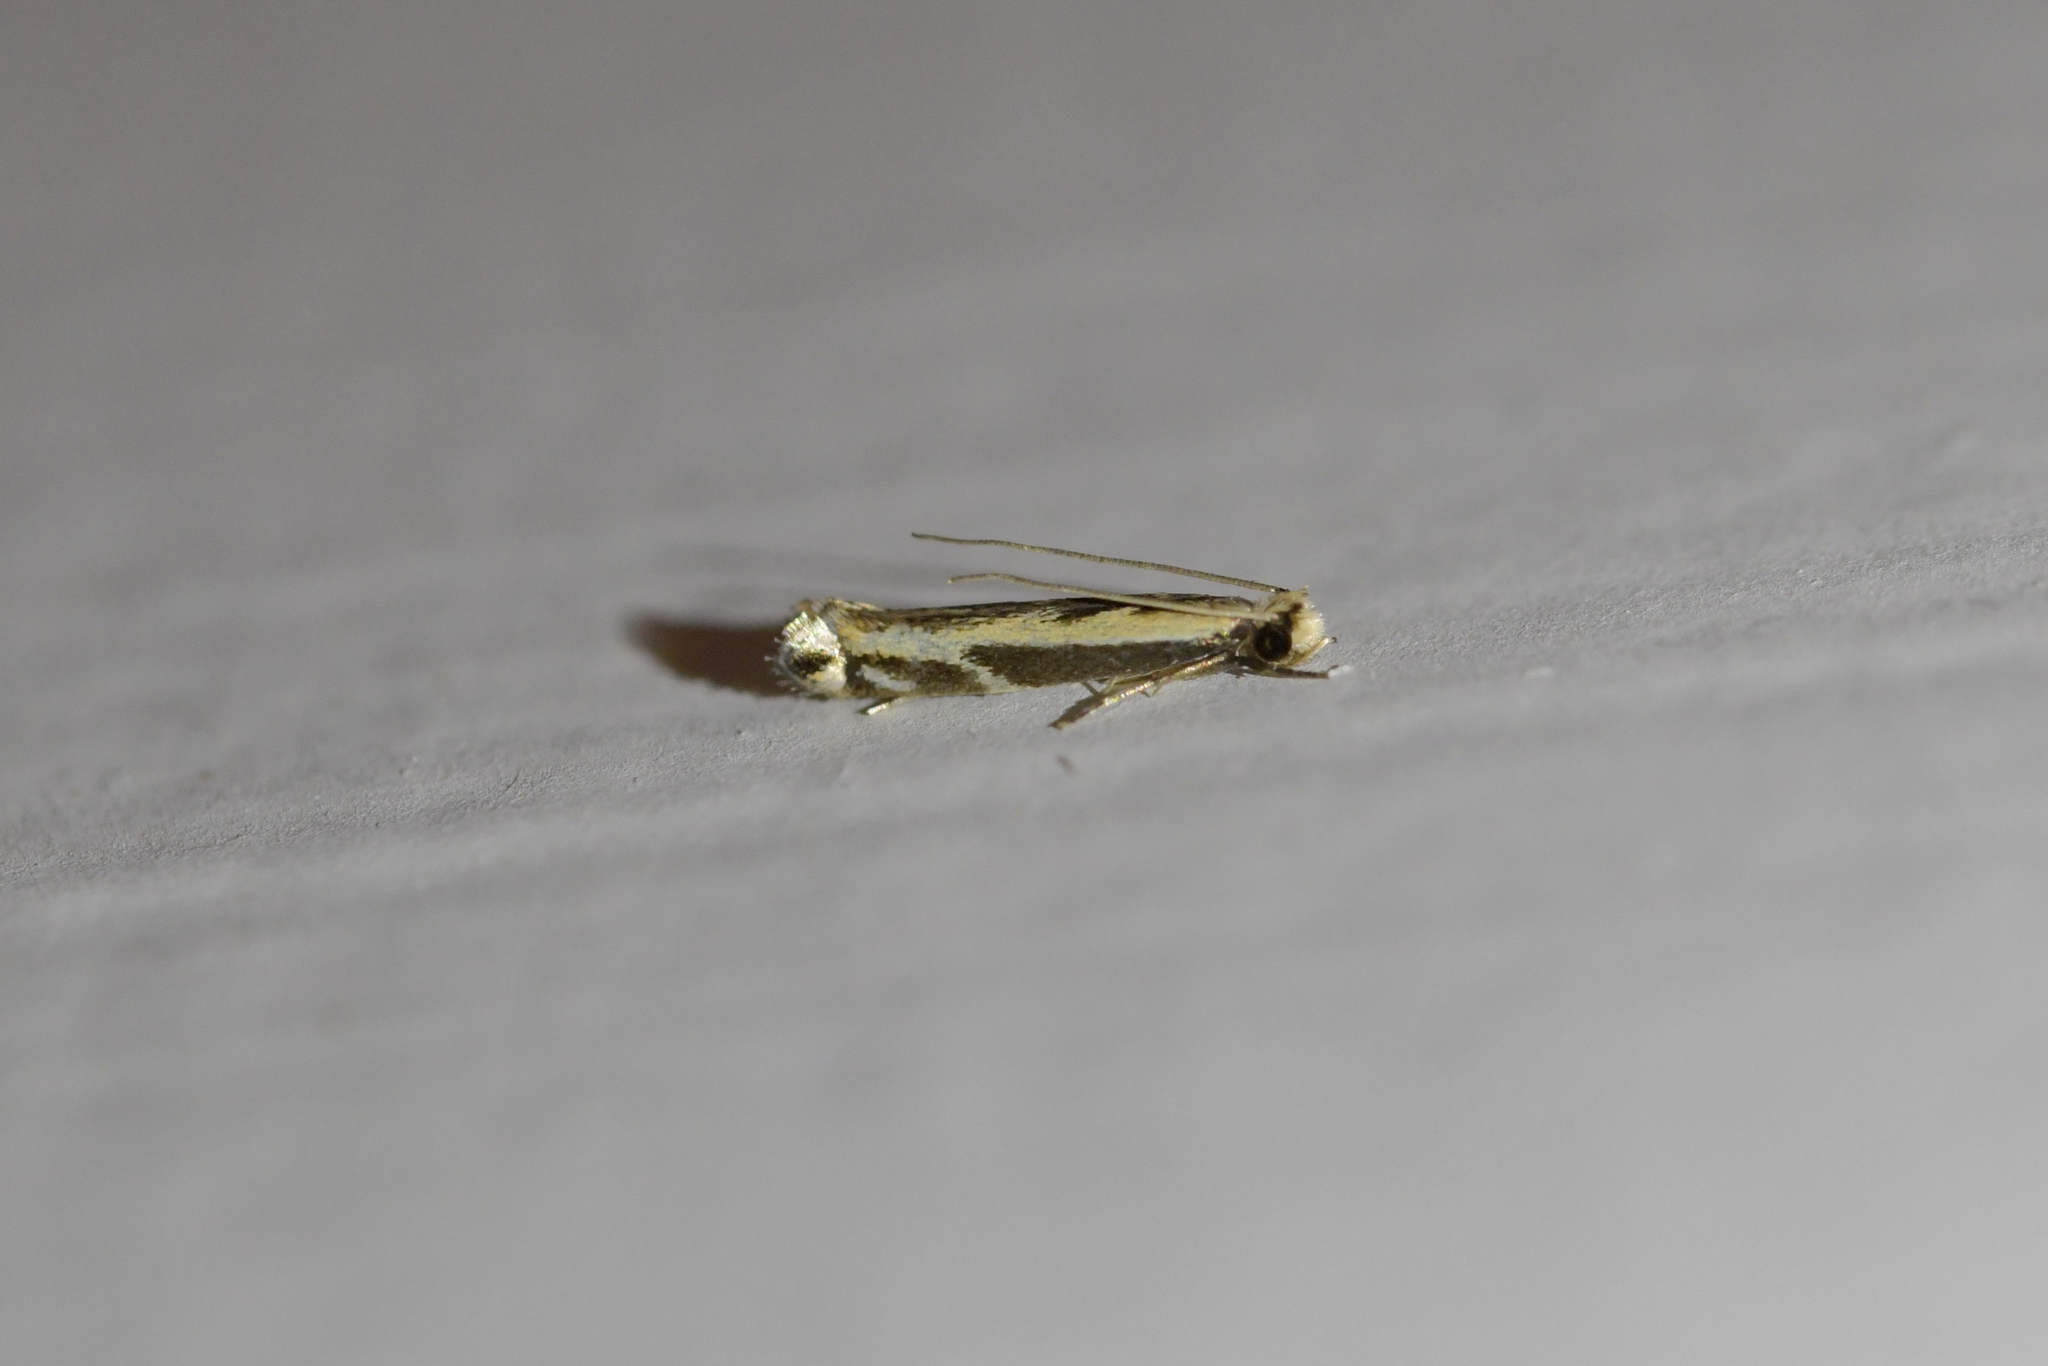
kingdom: Animalia
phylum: Arthropoda
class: Insecta
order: Lepidoptera
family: Tineidae
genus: Erechthias
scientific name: Erechthias terminella
